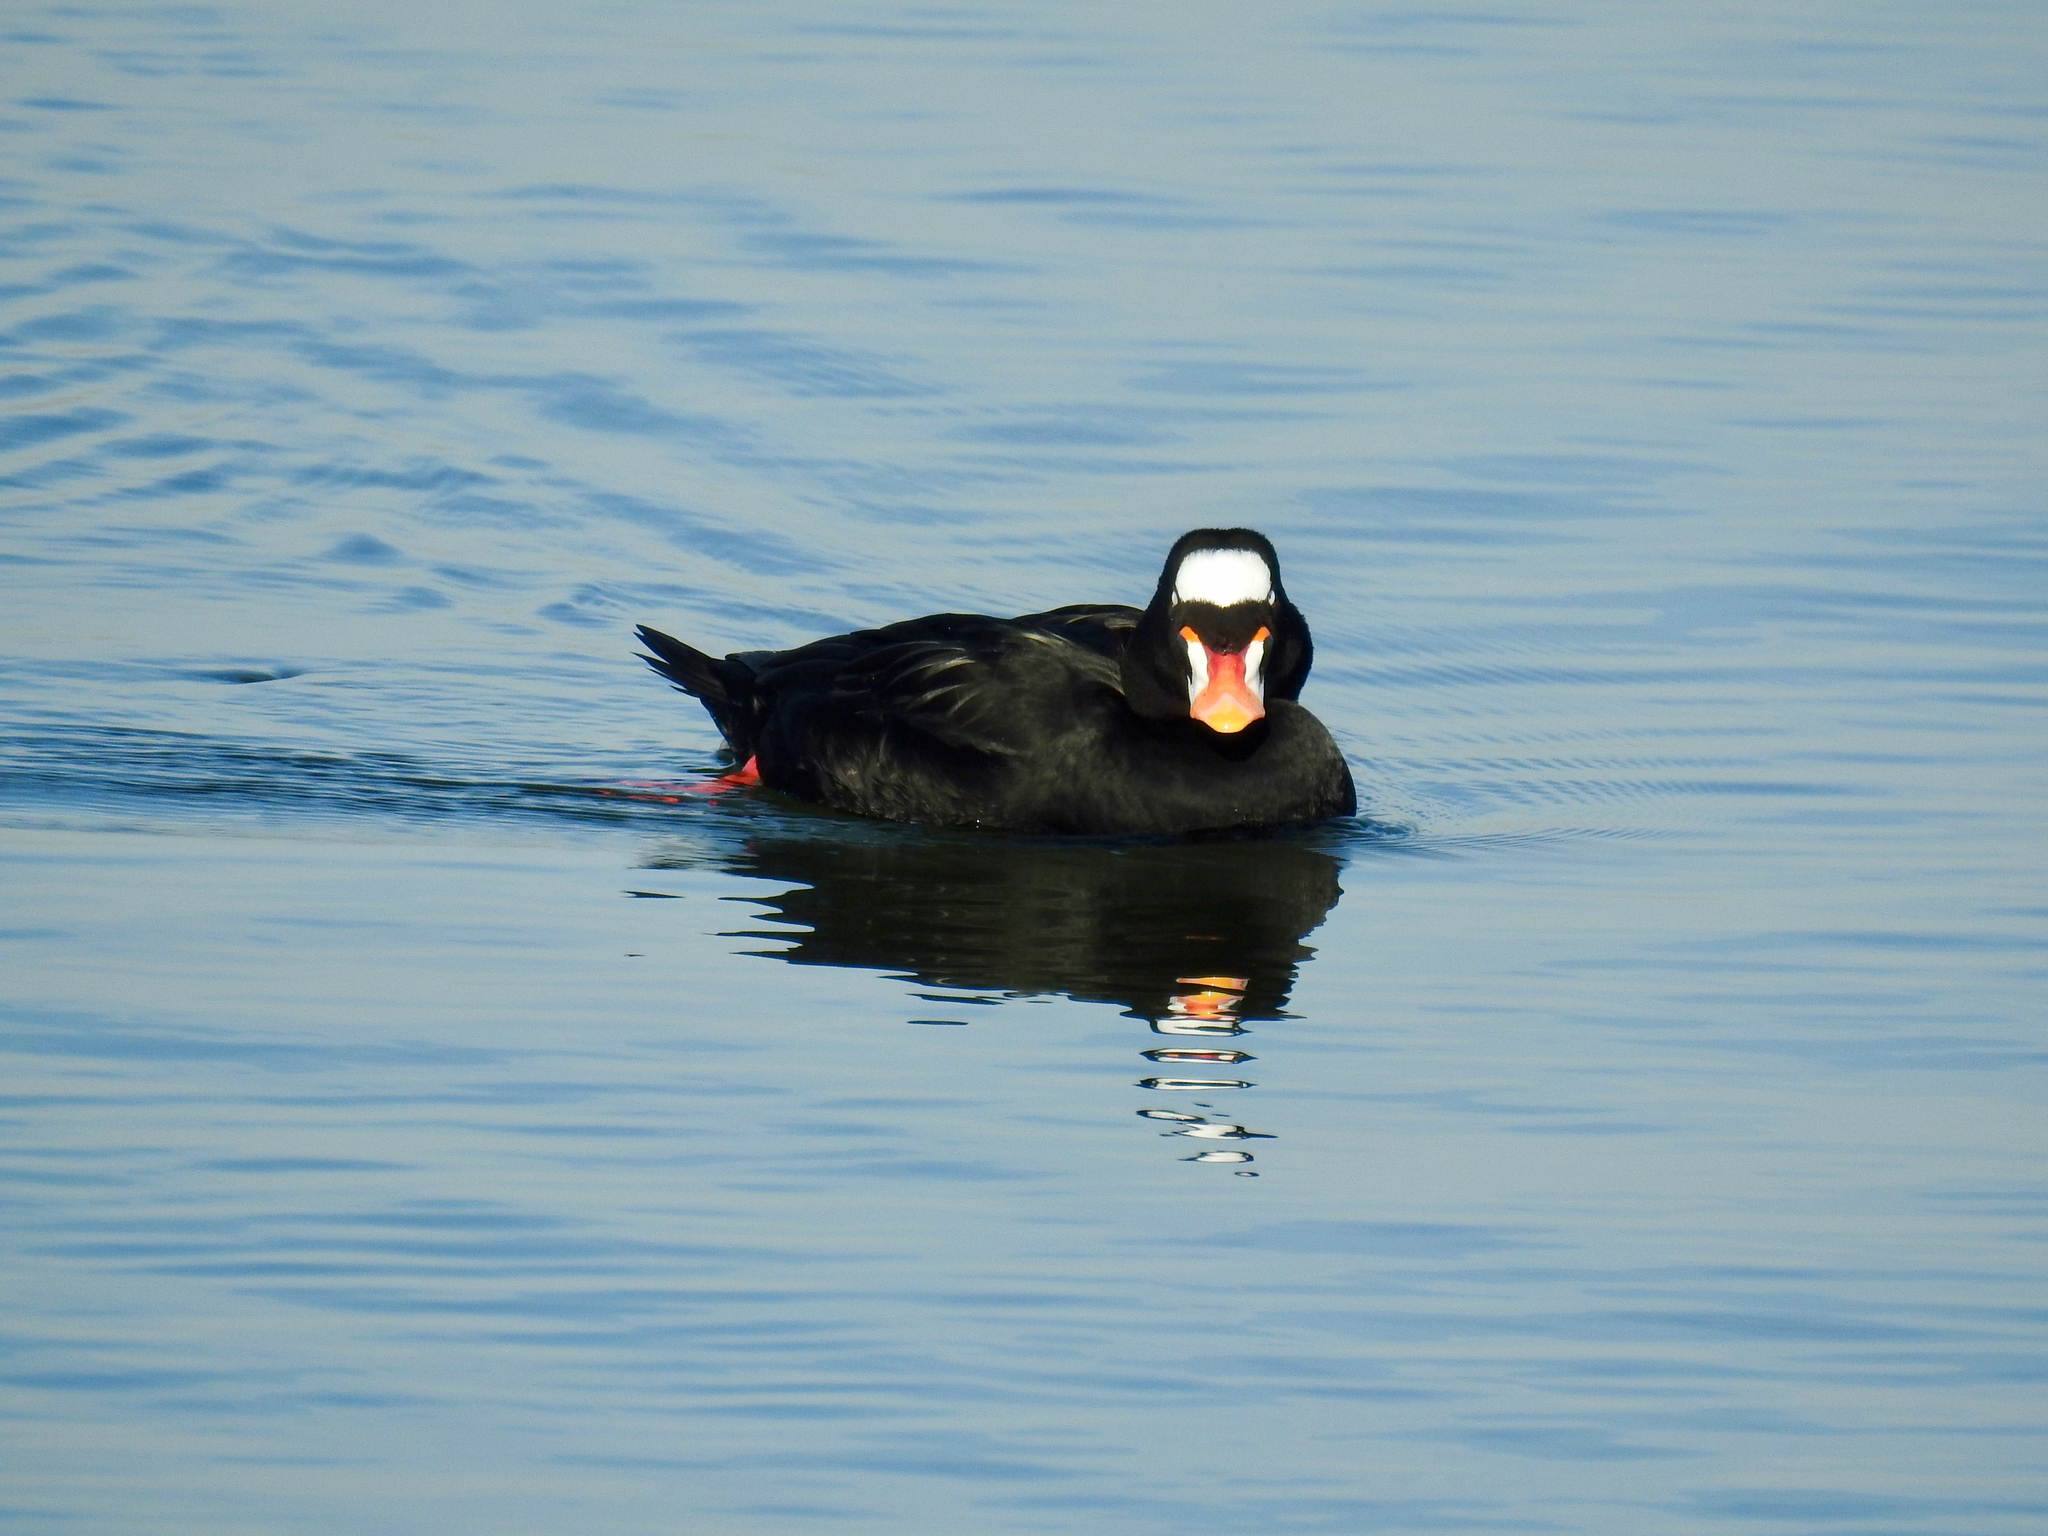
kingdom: Animalia
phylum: Chordata
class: Aves
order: Anseriformes
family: Anatidae
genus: Melanitta
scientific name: Melanitta perspicillata
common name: Surf scoter
